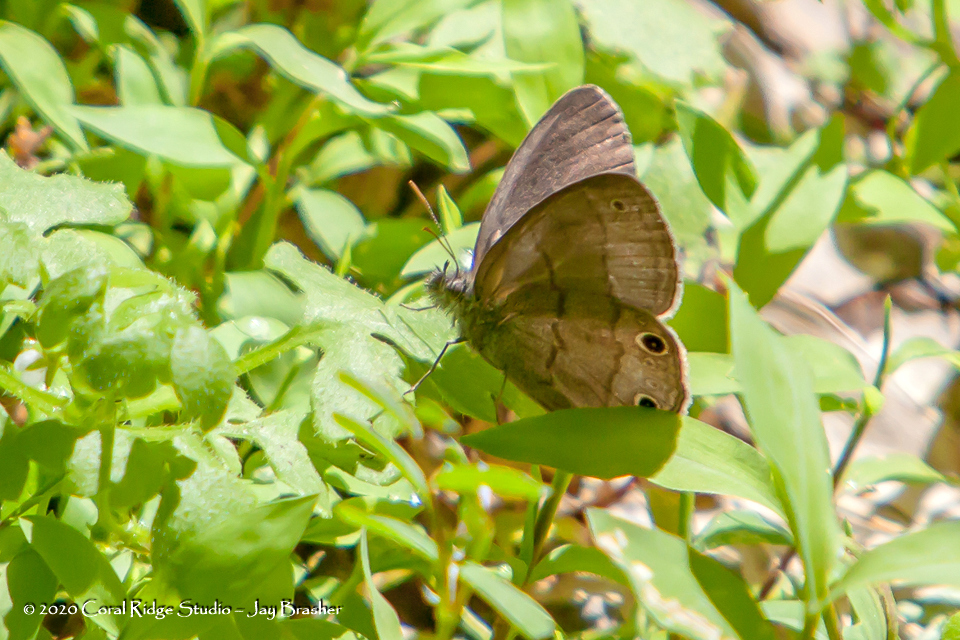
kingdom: Animalia
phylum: Arthropoda
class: Insecta
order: Lepidoptera
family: Nymphalidae
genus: Hermeuptychia
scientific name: Hermeuptychia hermes
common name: Hermes satyr
